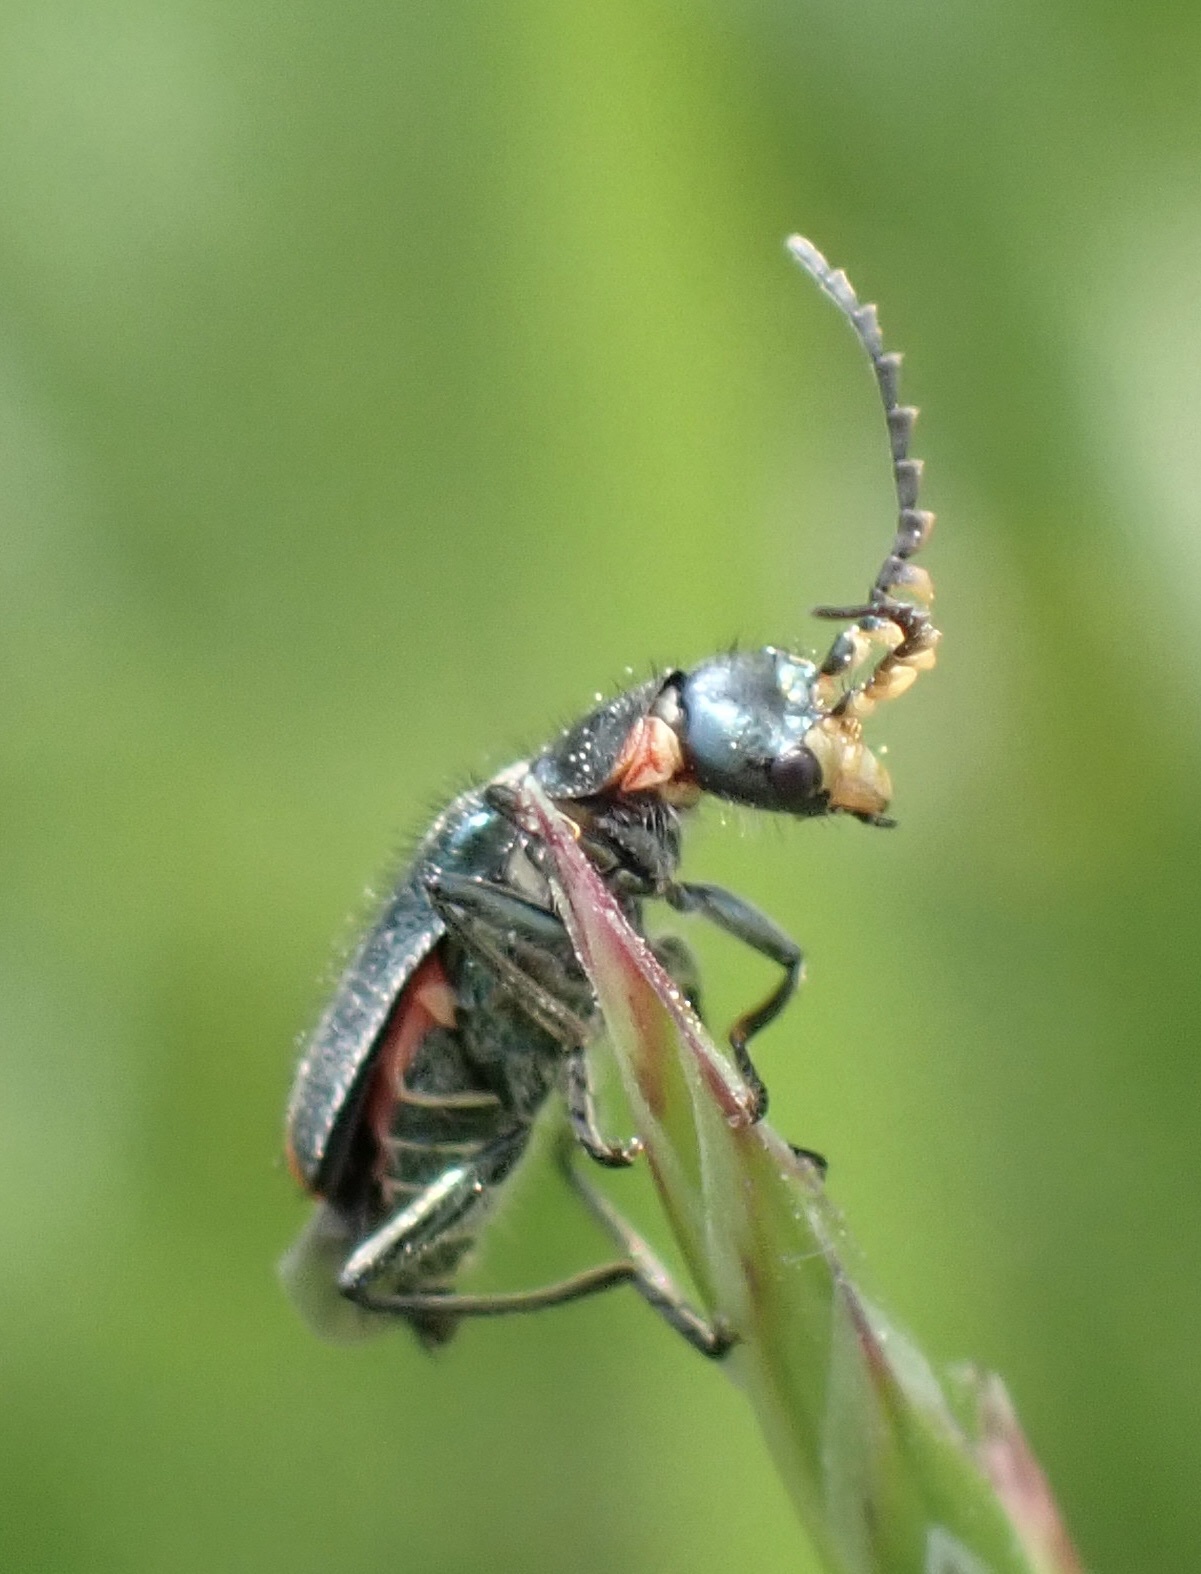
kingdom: Animalia
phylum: Arthropoda
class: Insecta
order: Coleoptera
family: Melyridae
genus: Malachius
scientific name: Malachius bipustulatus
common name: Malachite beetle
